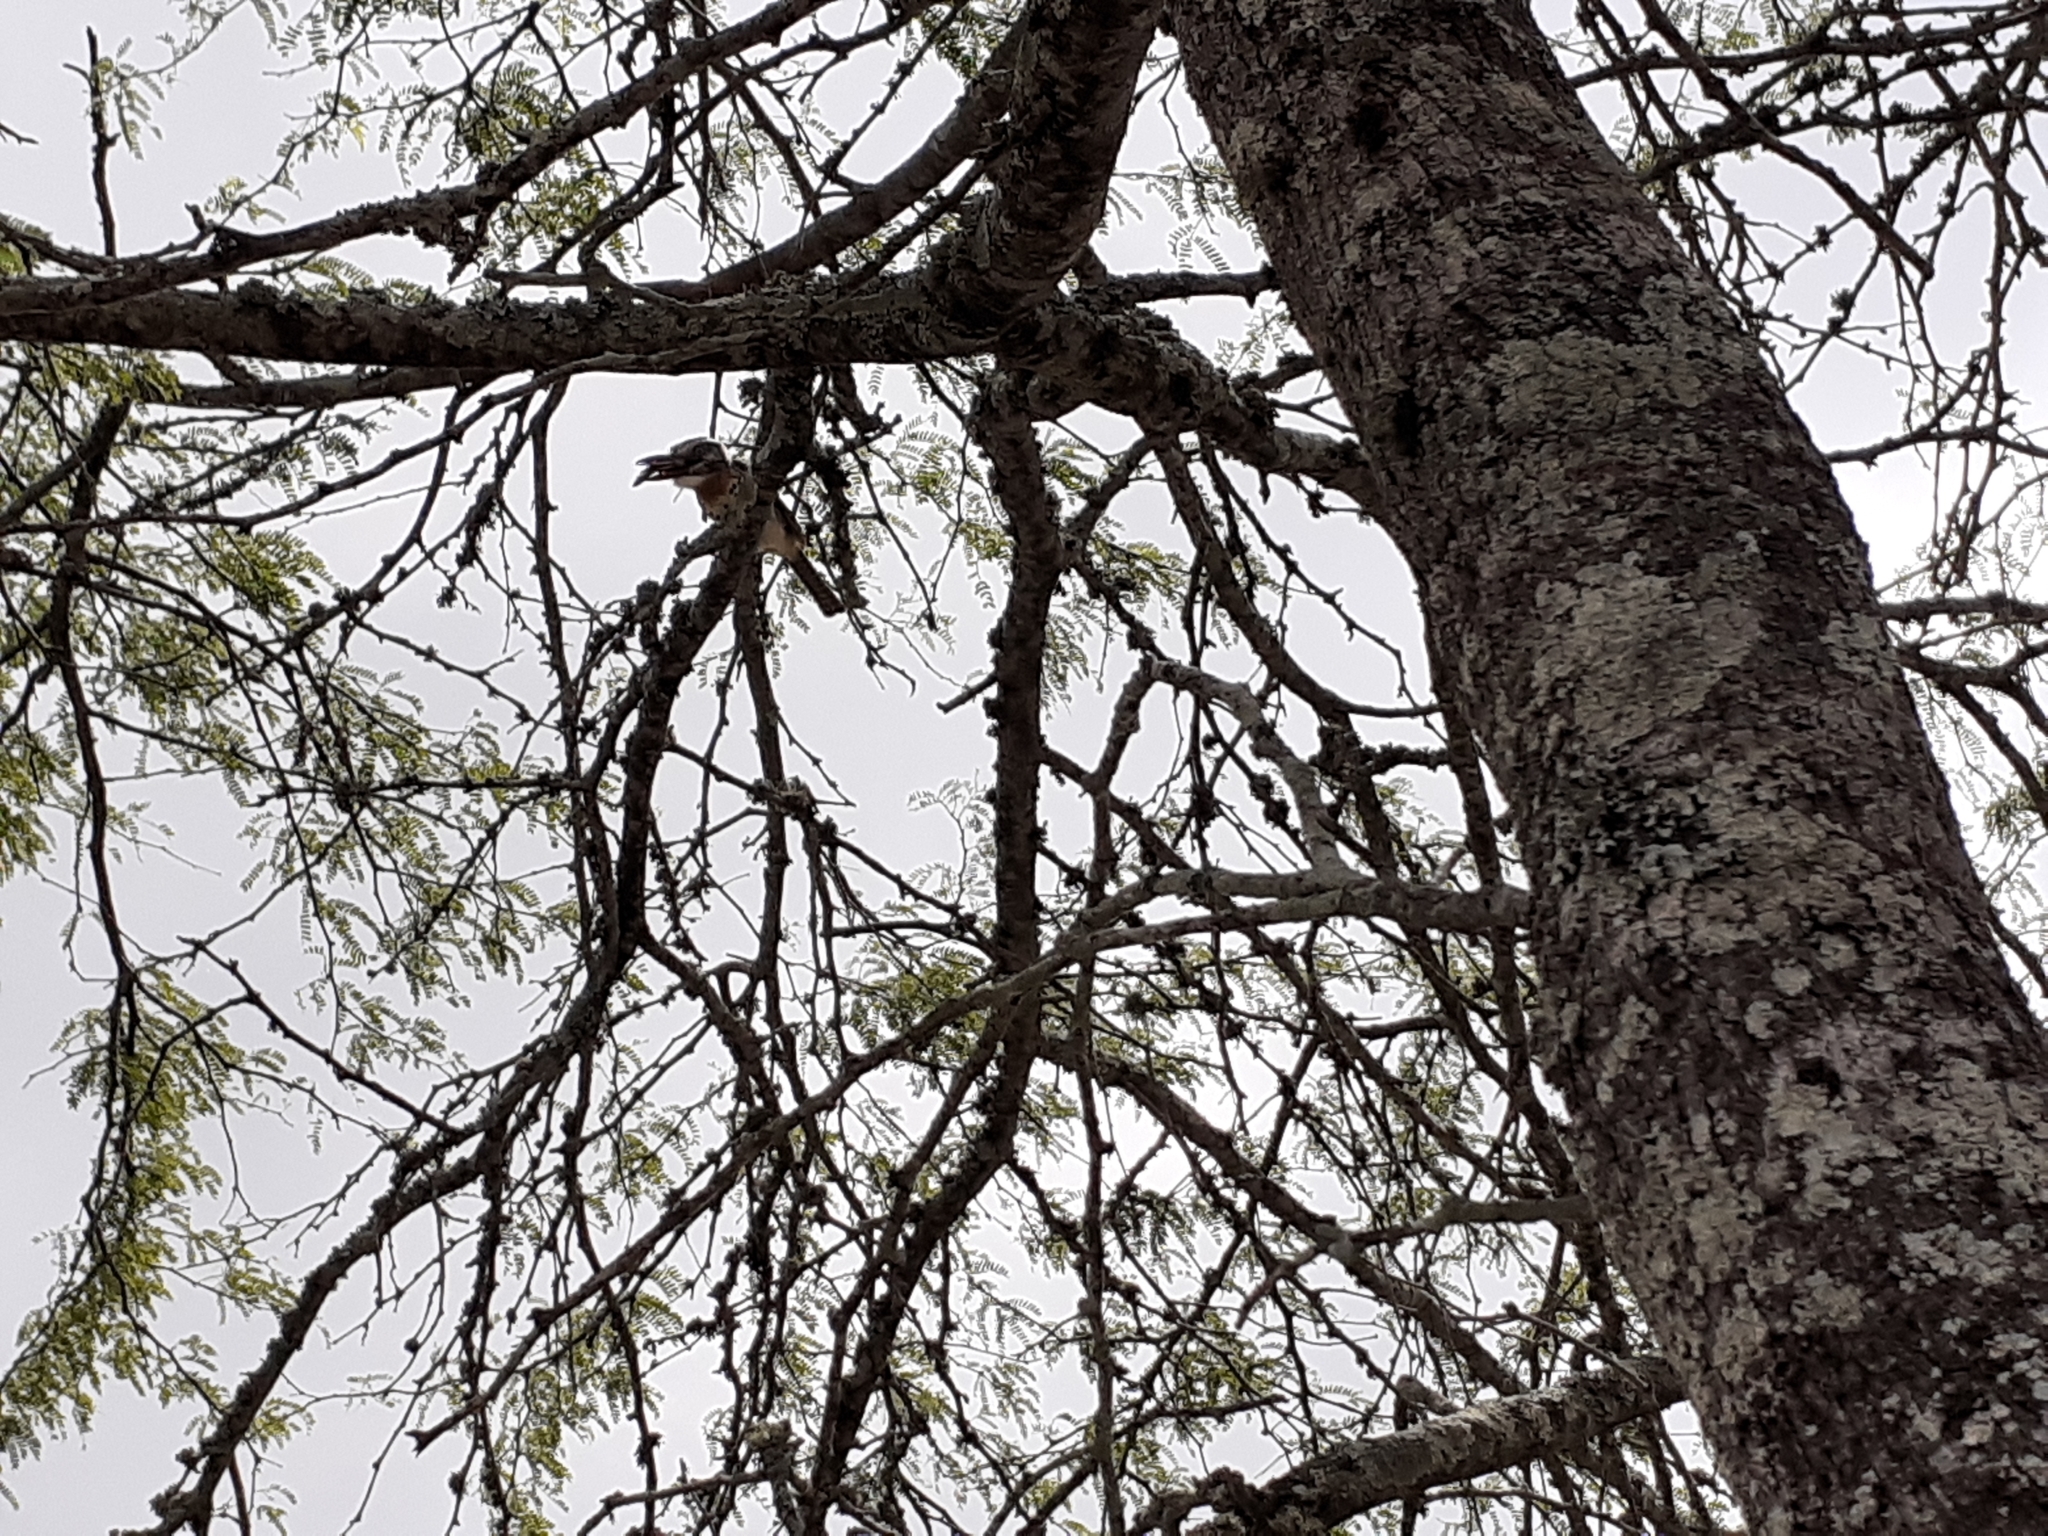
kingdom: Animalia
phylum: Chordata
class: Aves
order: Piciformes
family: Bucconidae
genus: Nystalus
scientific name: Nystalus maculatus
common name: Caatinga puffbird
